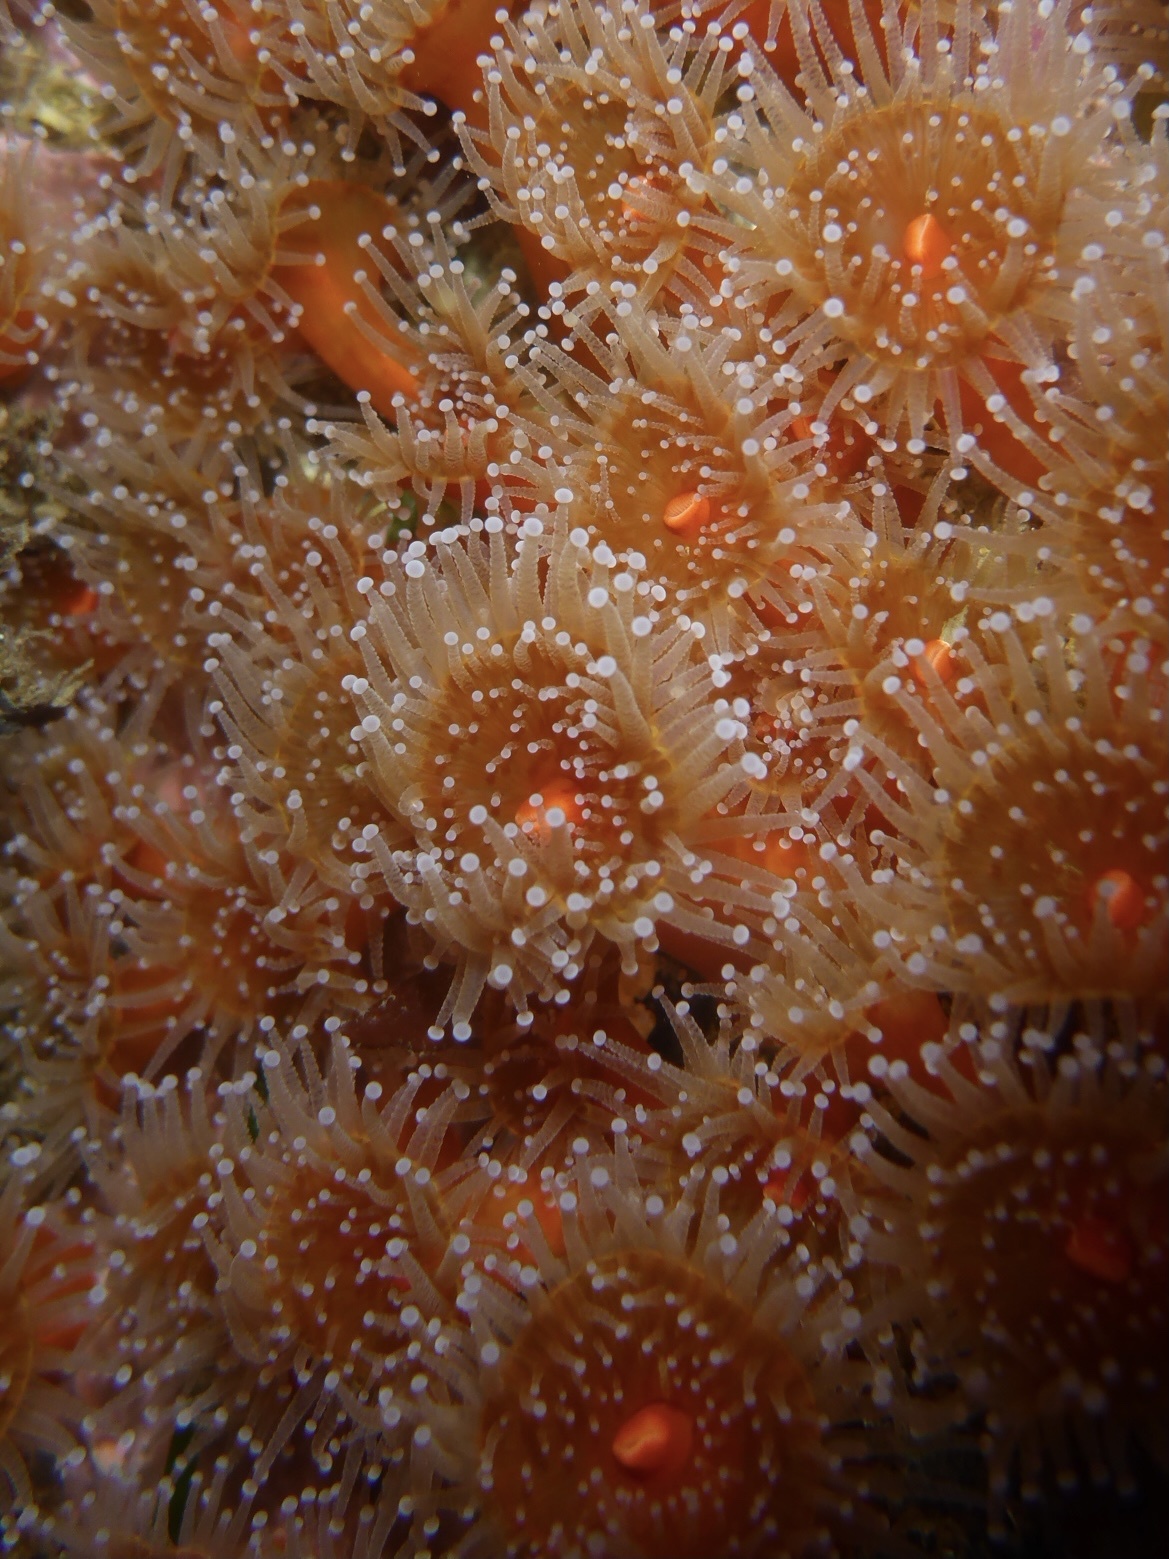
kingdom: Animalia
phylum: Cnidaria
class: Anthozoa
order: Corallimorpharia
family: Corallimorphidae
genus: Corynactis
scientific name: Corynactis californica
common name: Strawberry corallimorpharian
